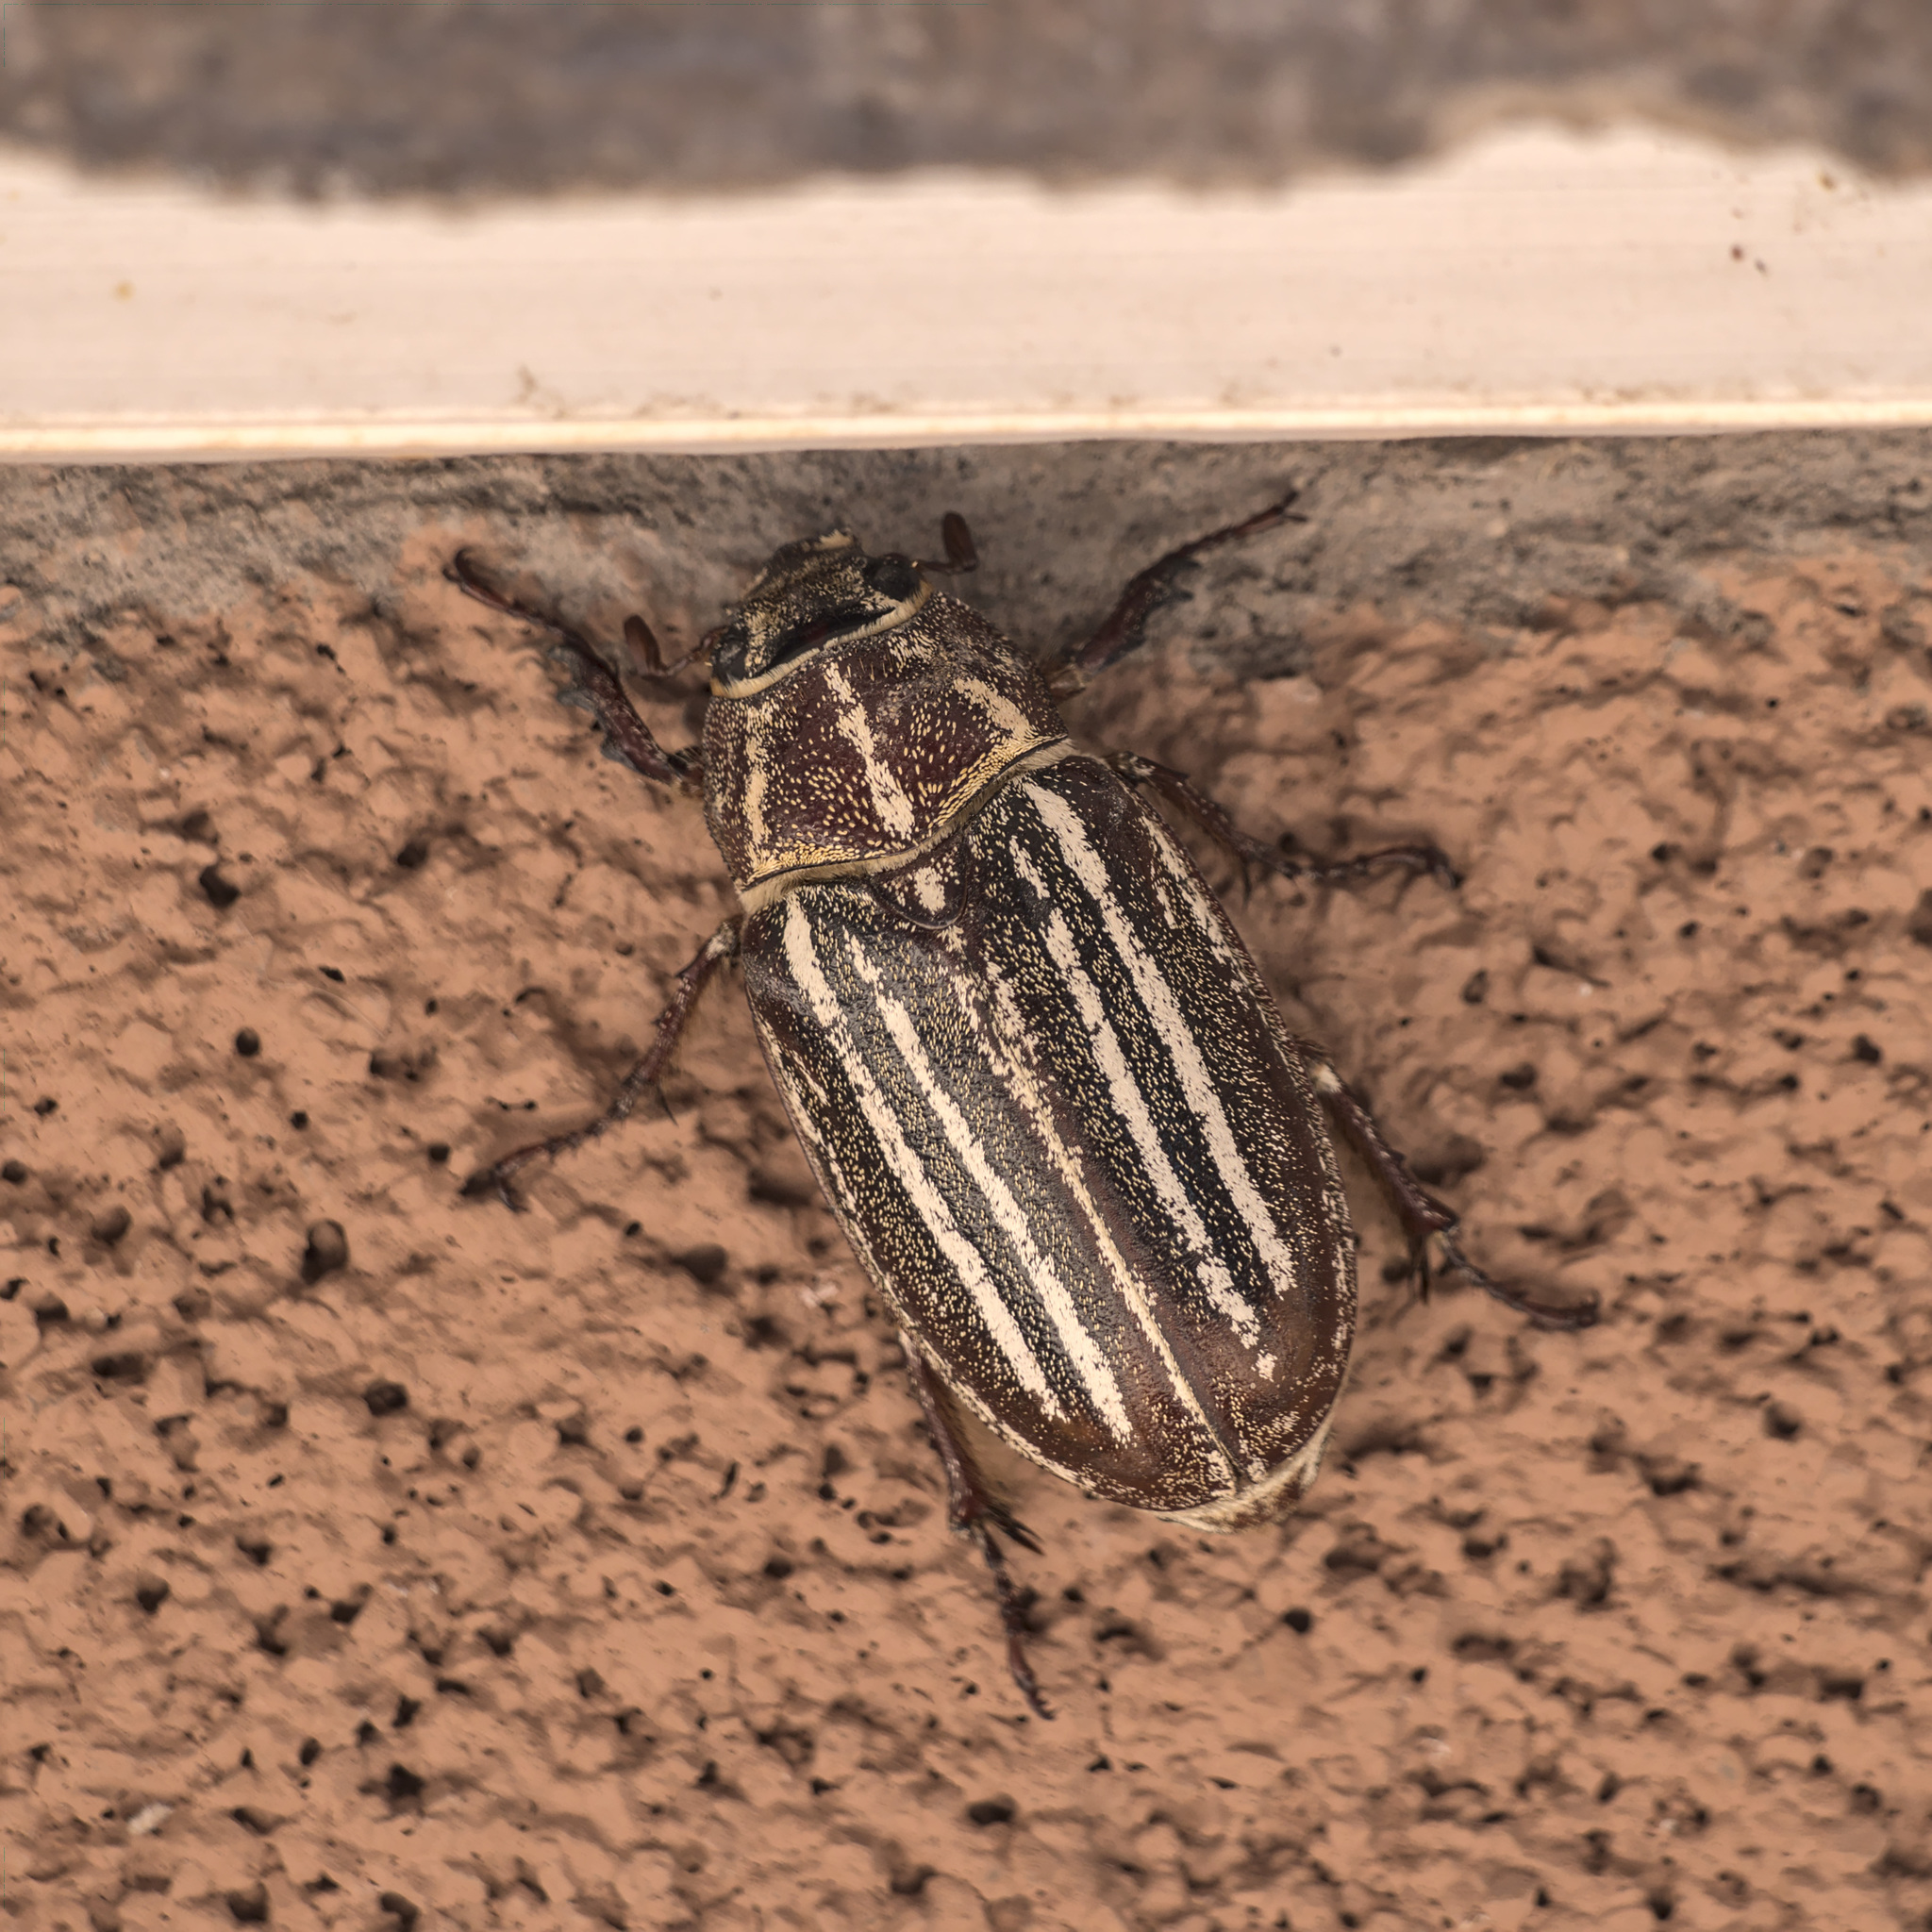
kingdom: Animalia
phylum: Arthropoda
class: Insecta
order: Coleoptera
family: Scarabaeidae
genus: Polyphylla
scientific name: Polyphylla decemlineata
